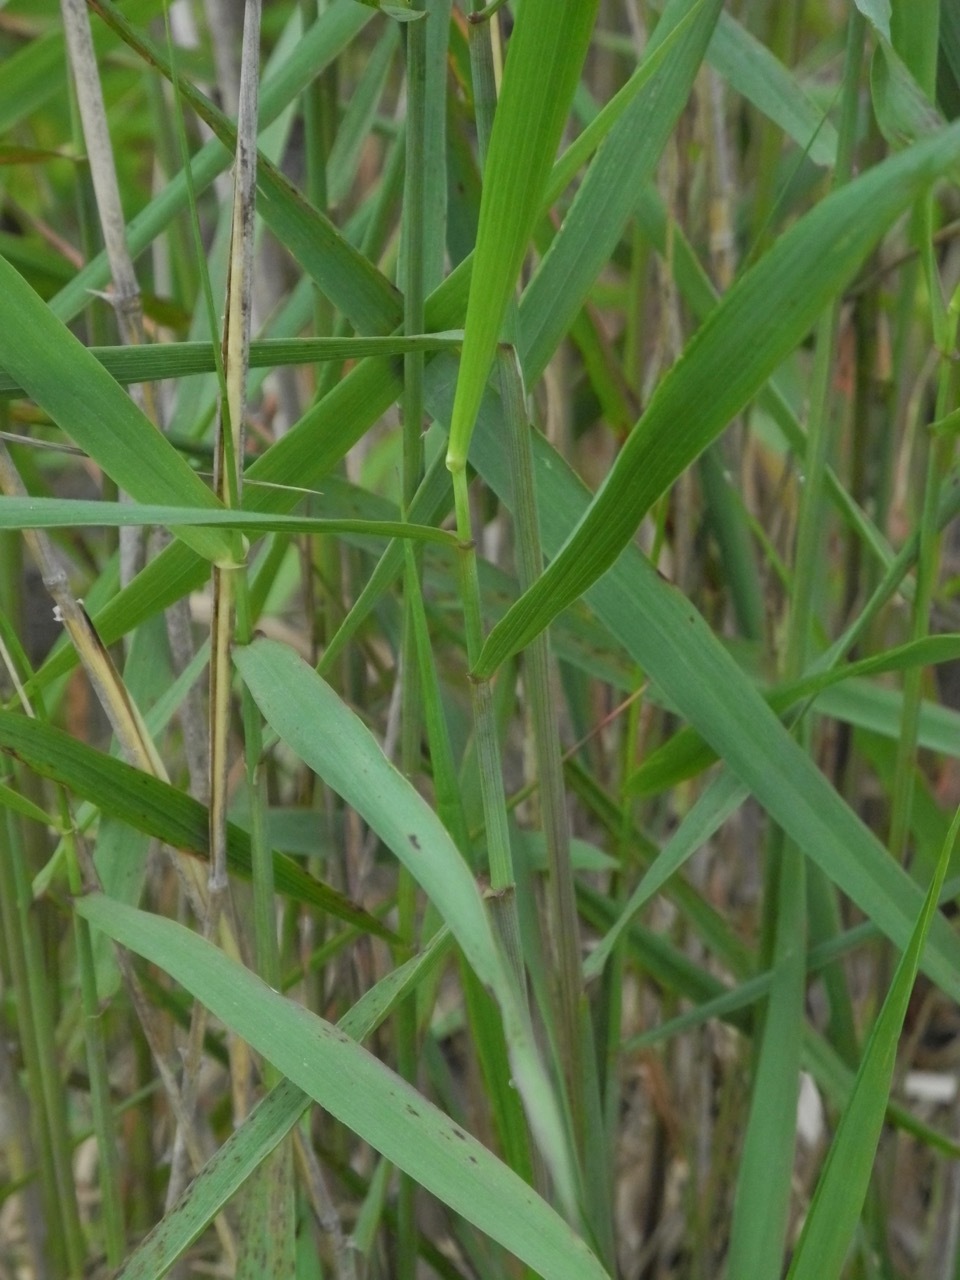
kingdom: Plantae
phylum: Tracheophyta
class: Liliopsida
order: Poales
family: Poaceae
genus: Elymus
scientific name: Elymus riparius
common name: Eastern riverbank wild rye
